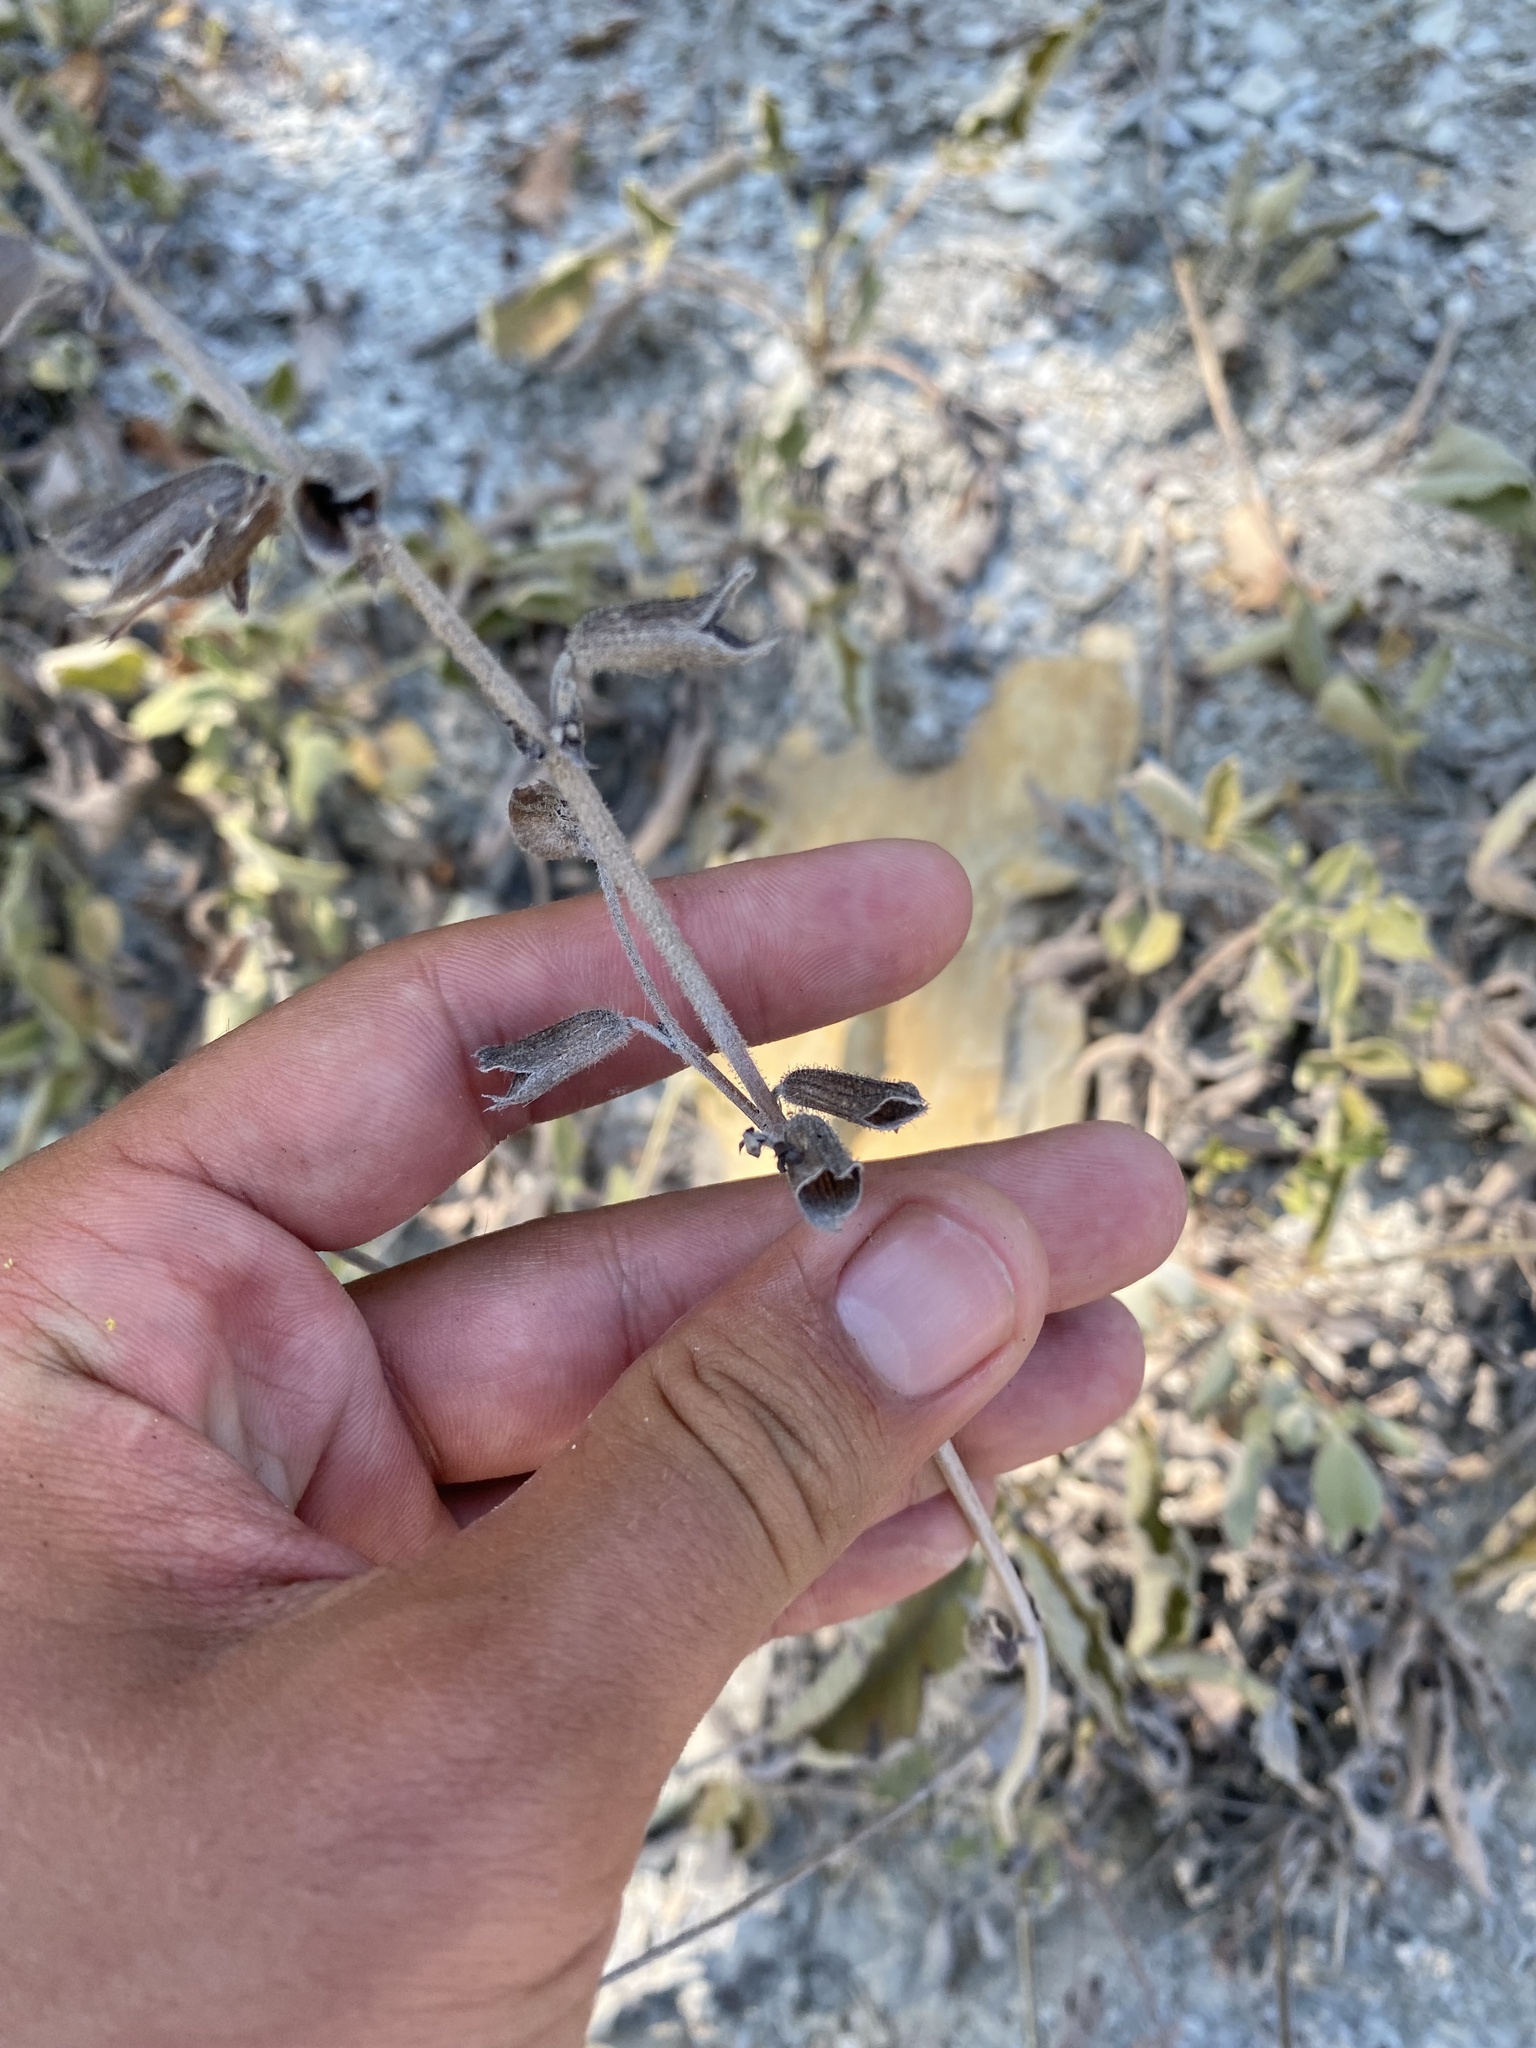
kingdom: Plantae
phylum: Tracheophyta
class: Magnoliopsida
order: Lamiales
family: Lamiaceae
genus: Salvia
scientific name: Salvia ringens
